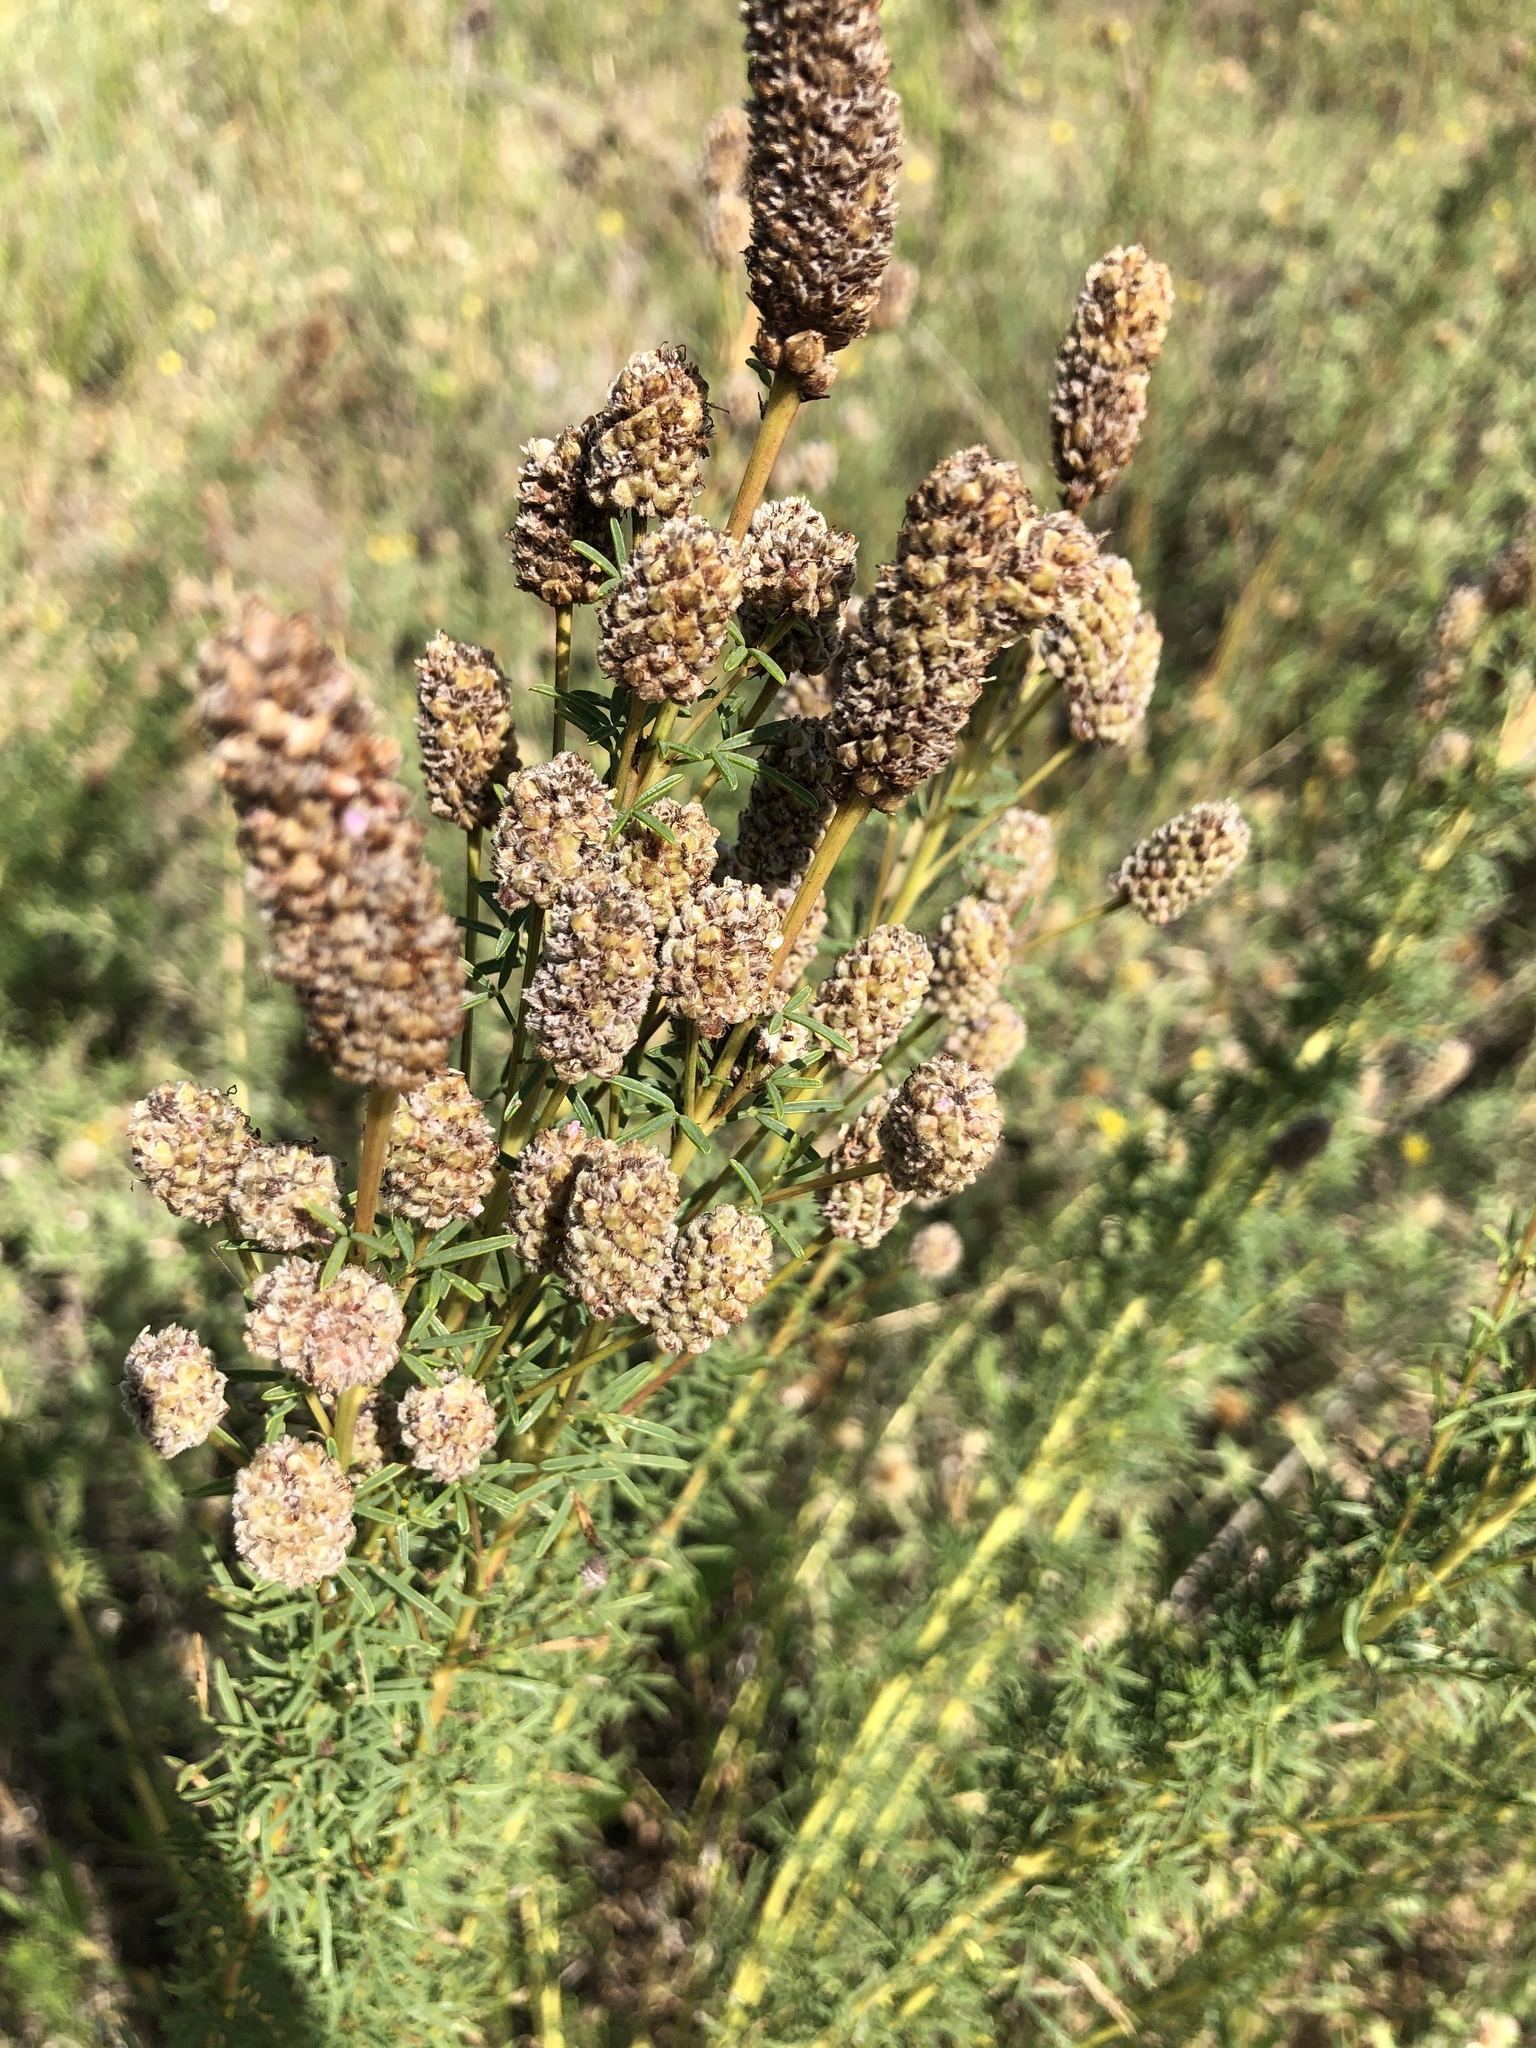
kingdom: Plantae
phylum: Tracheophyta
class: Magnoliopsida
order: Fabales
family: Fabaceae
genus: Dalea
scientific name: Dalea purpurea
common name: Purple prairie-clover
